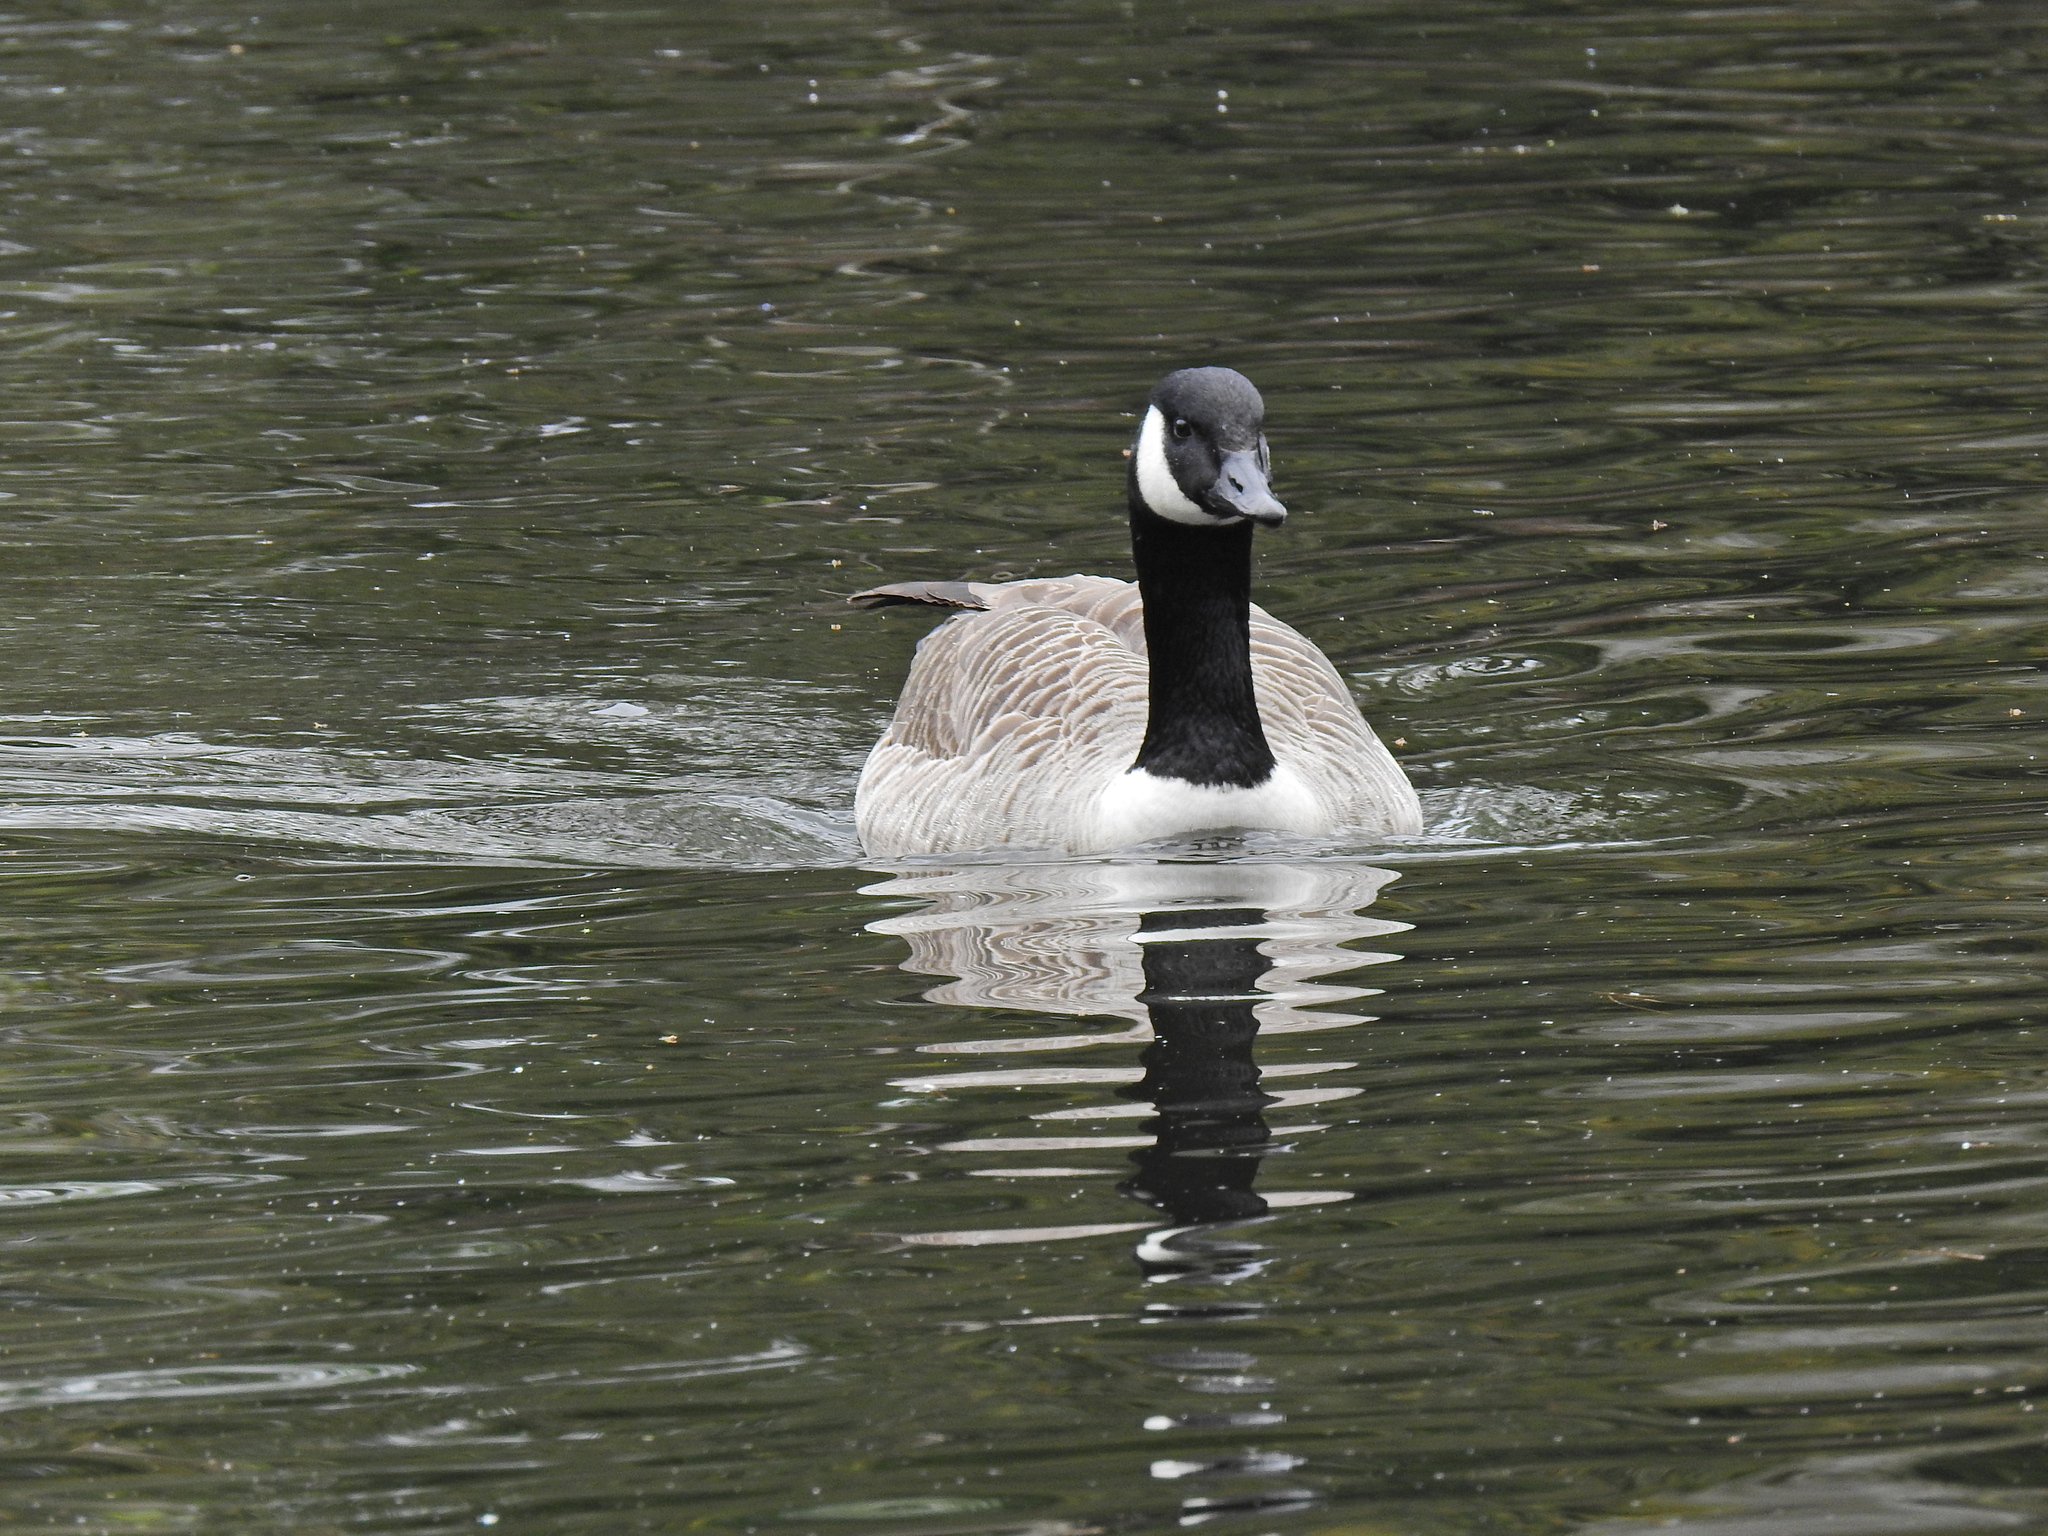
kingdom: Animalia
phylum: Chordata
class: Aves
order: Anseriformes
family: Anatidae
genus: Branta
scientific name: Branta canadensis
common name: Canada goose
